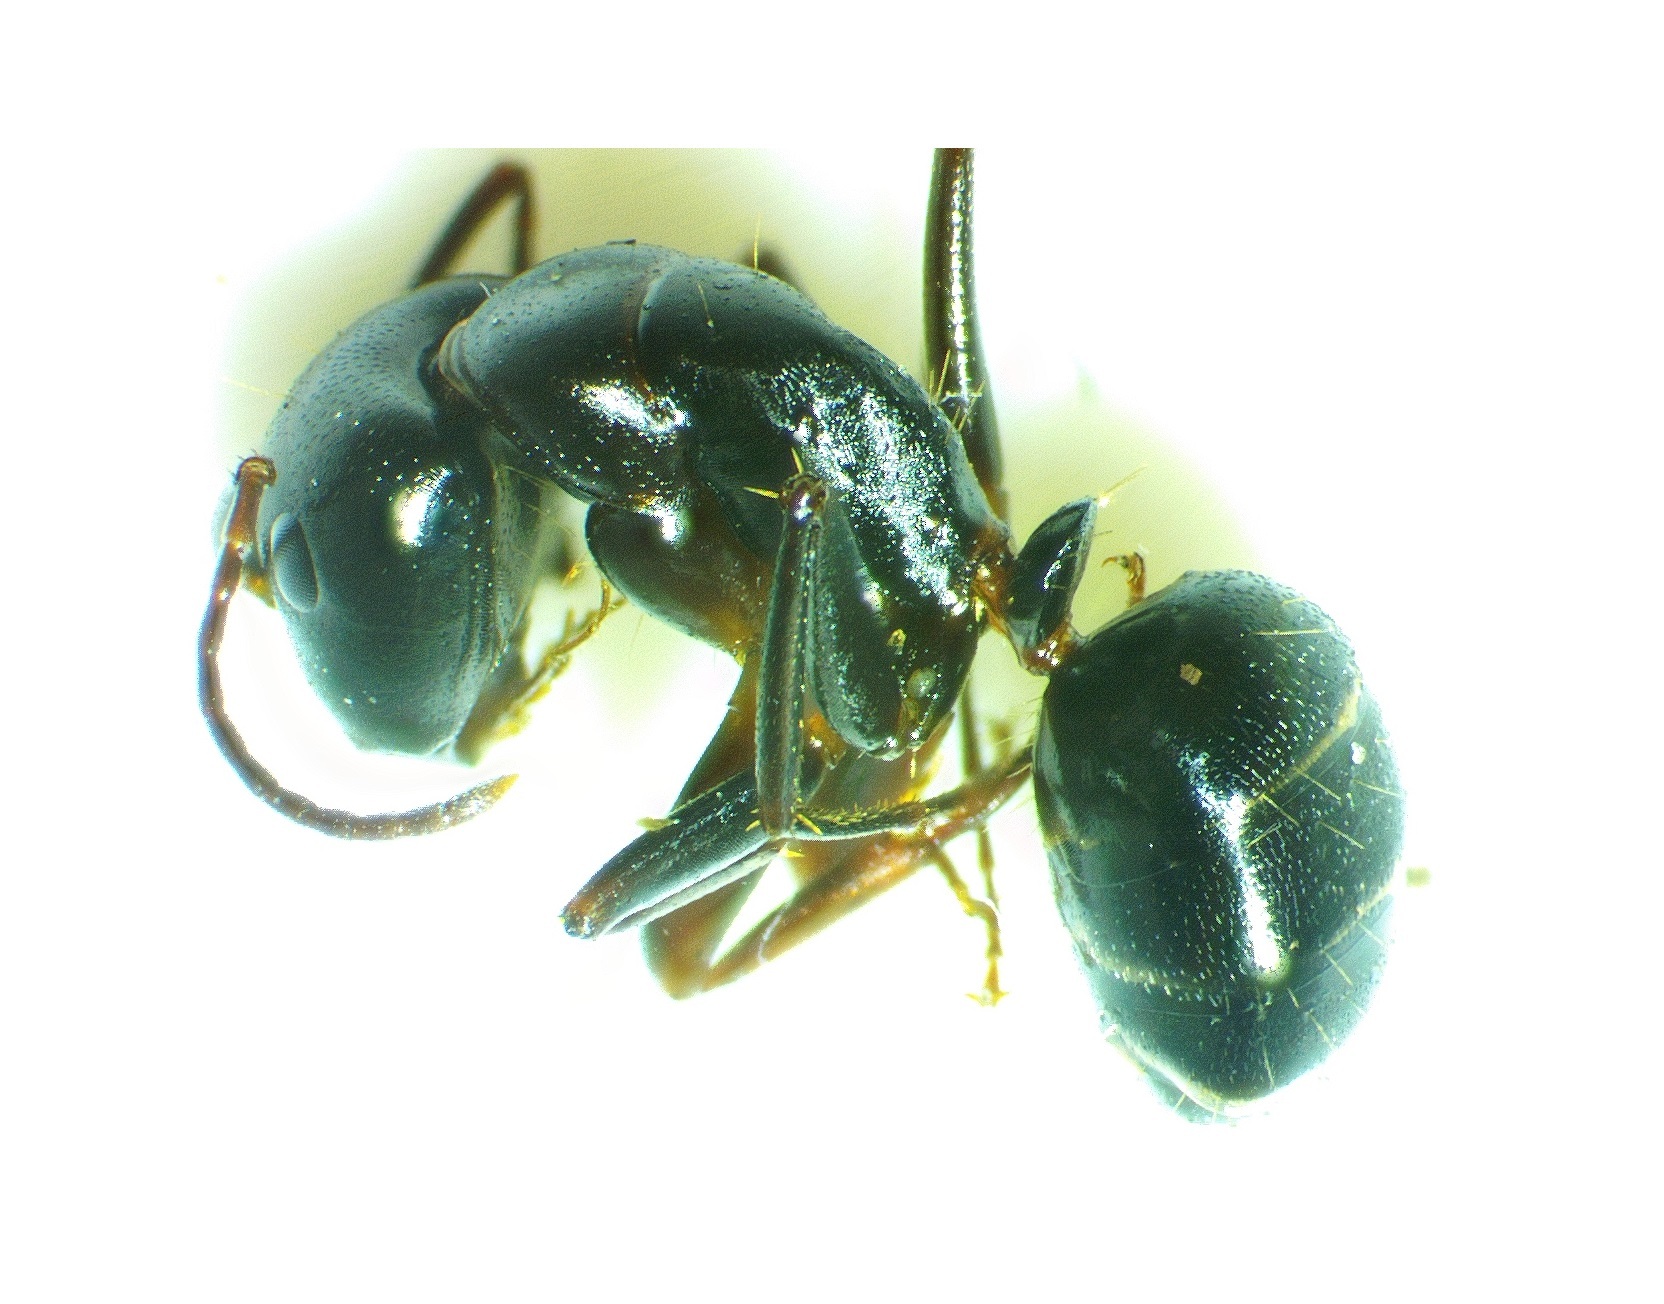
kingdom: Animalia
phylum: Arthropoda
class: Insecta
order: Hymenoptera
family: Formicidae
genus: Camponotus
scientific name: Camponotus nearcticus
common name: Smaller carpenter ant
